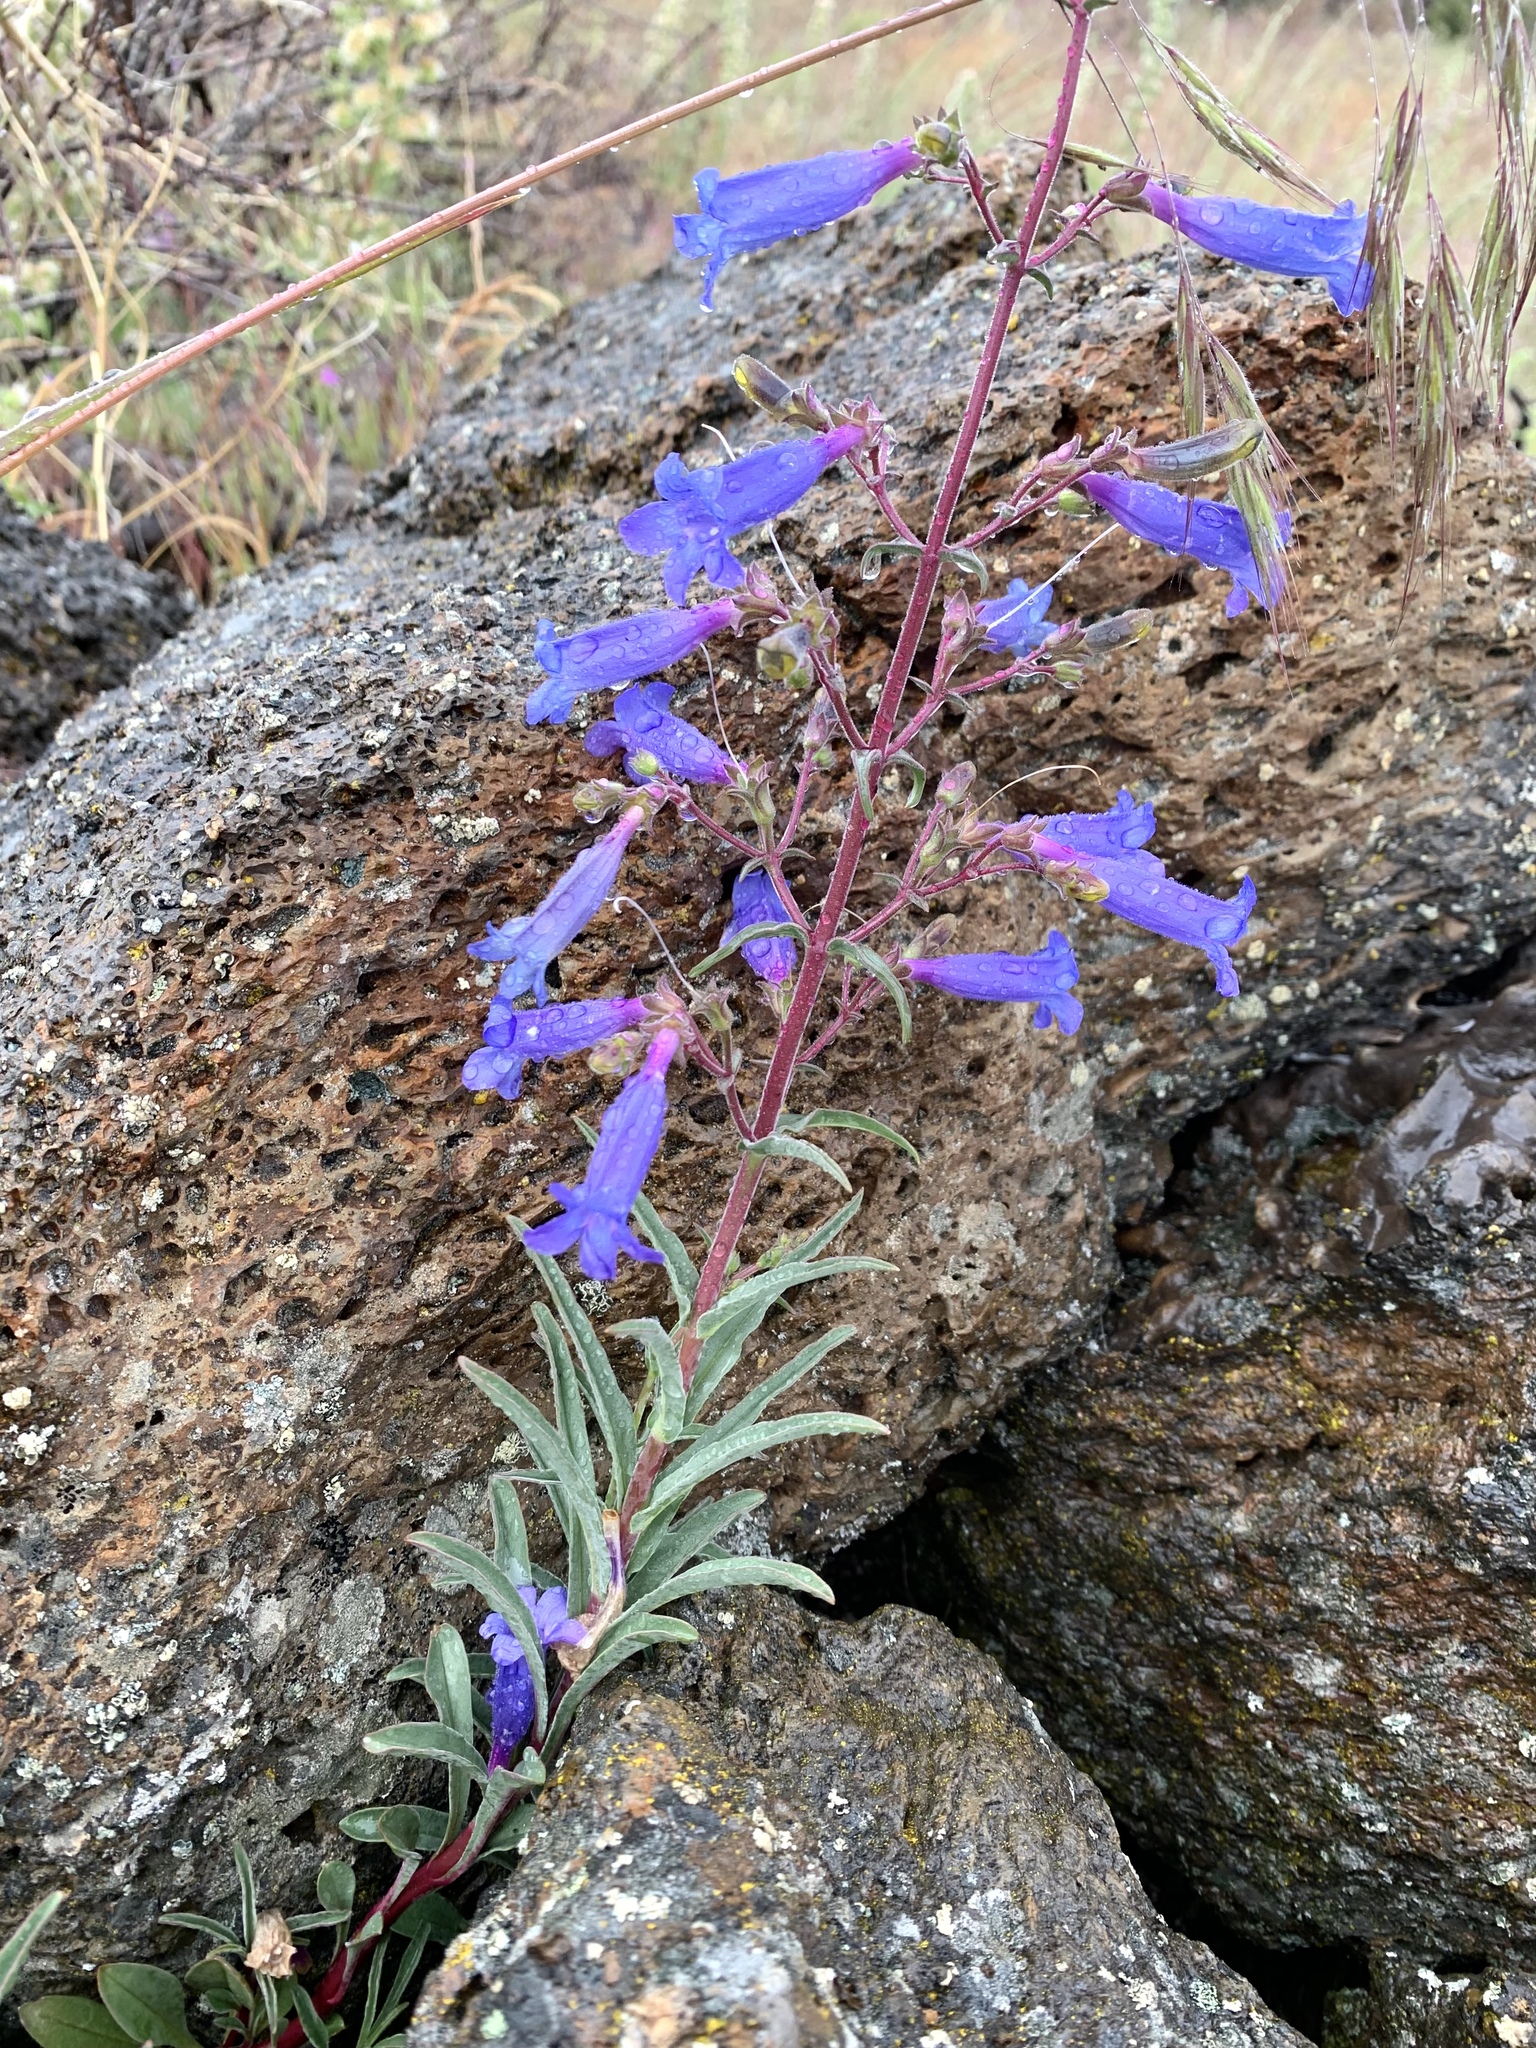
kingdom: Plantae
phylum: Tracheophyta
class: Magnoliopsida
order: Lamiales
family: Plantaginaceae
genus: Penstemon
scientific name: Penstemon roezlii
